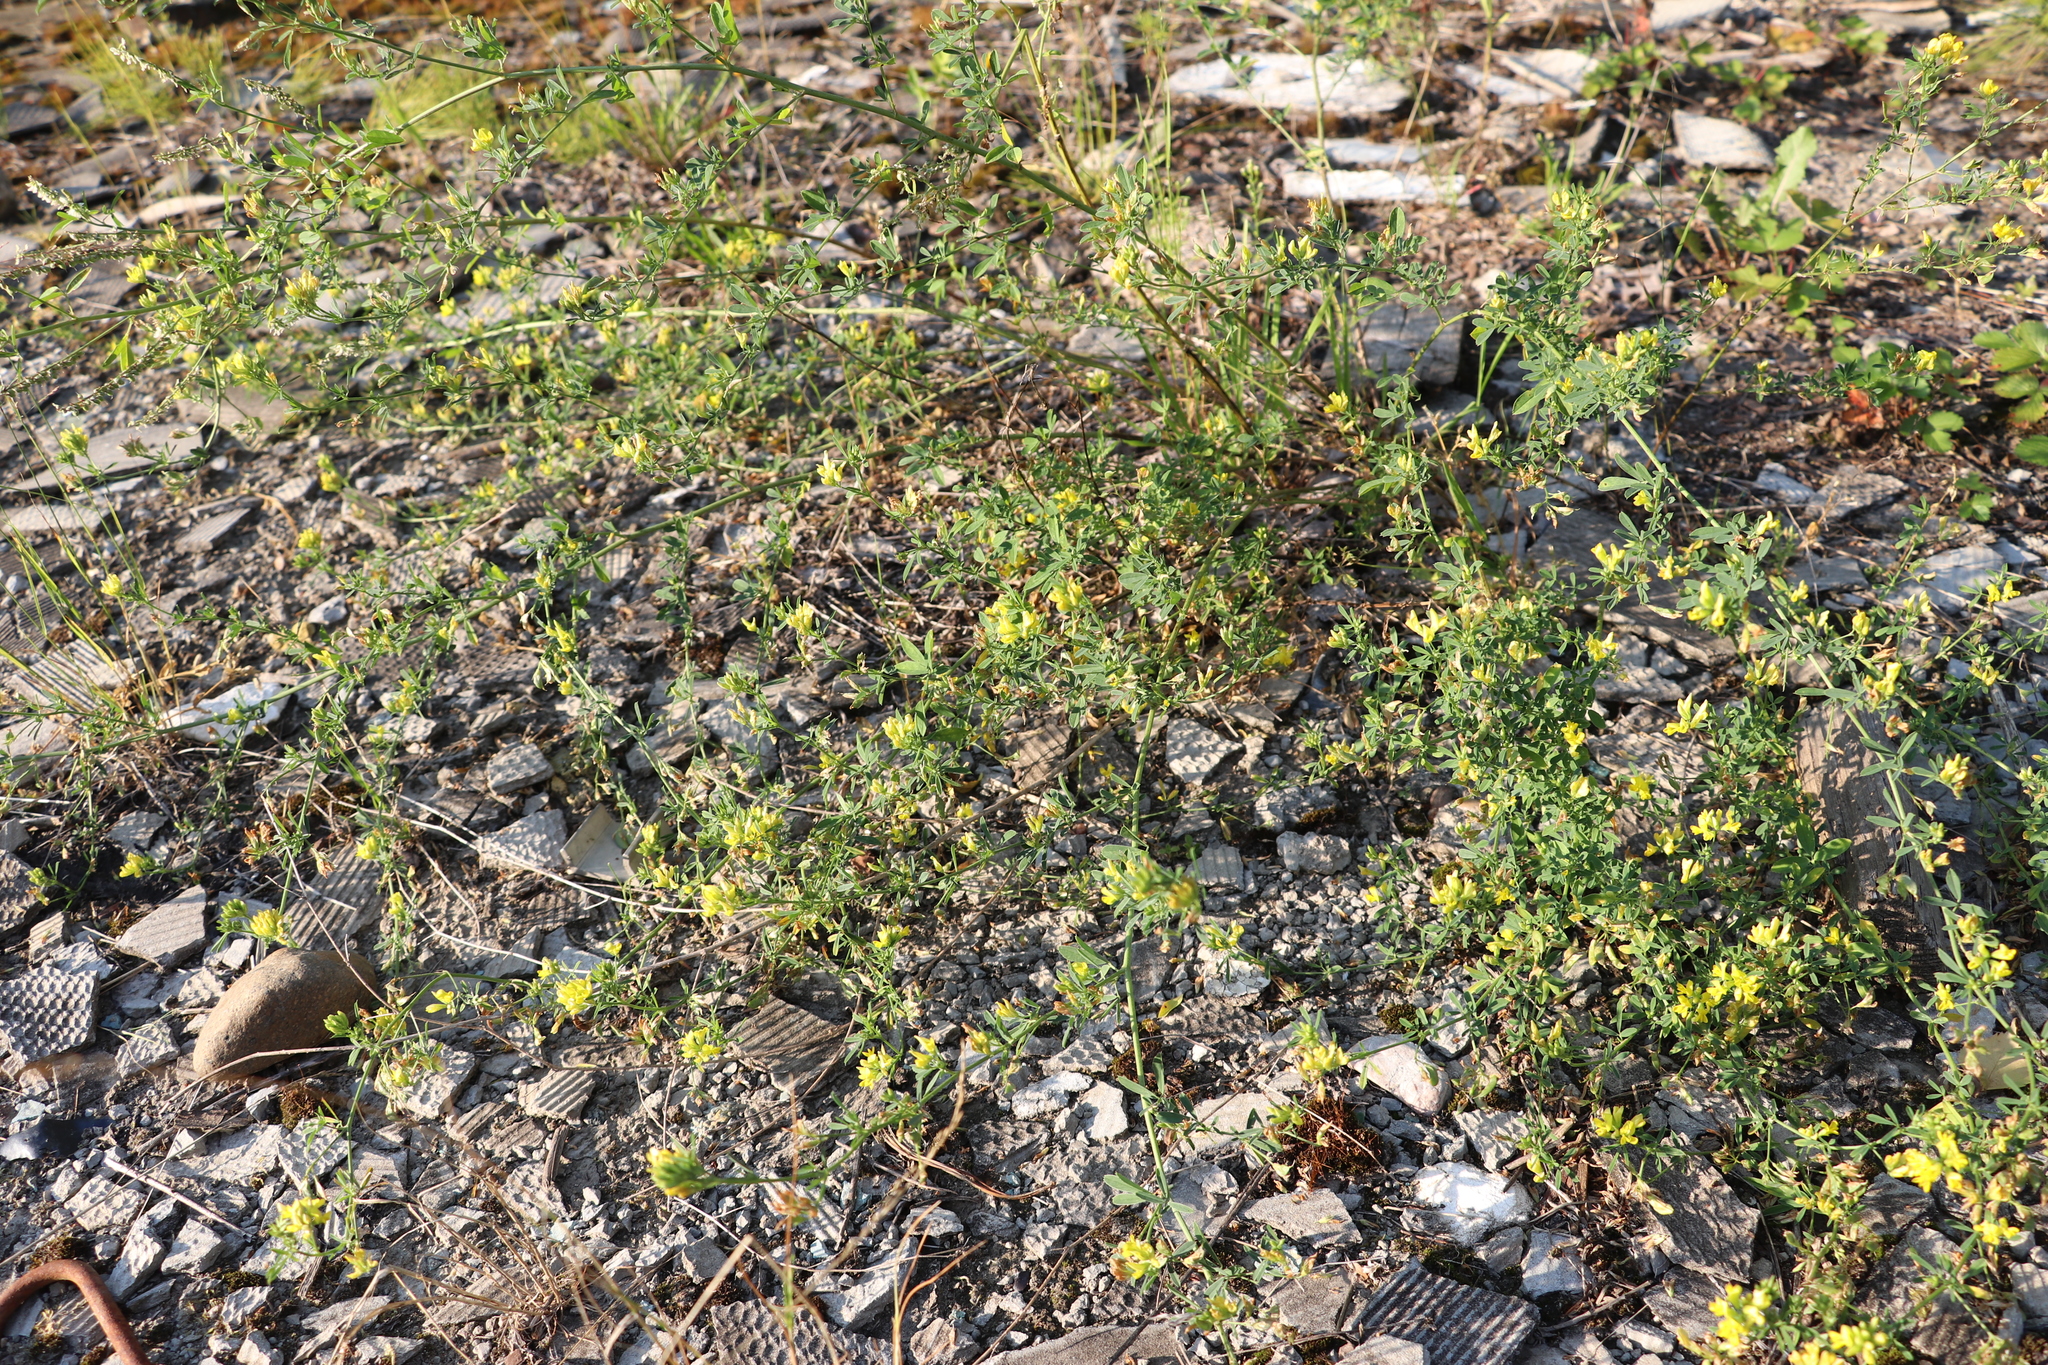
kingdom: Plantae
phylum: Tracheophyta
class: Magnoliopsida
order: Fabales
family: Fabaceae
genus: Medicago
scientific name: Medicago falcata
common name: Sickle medick
